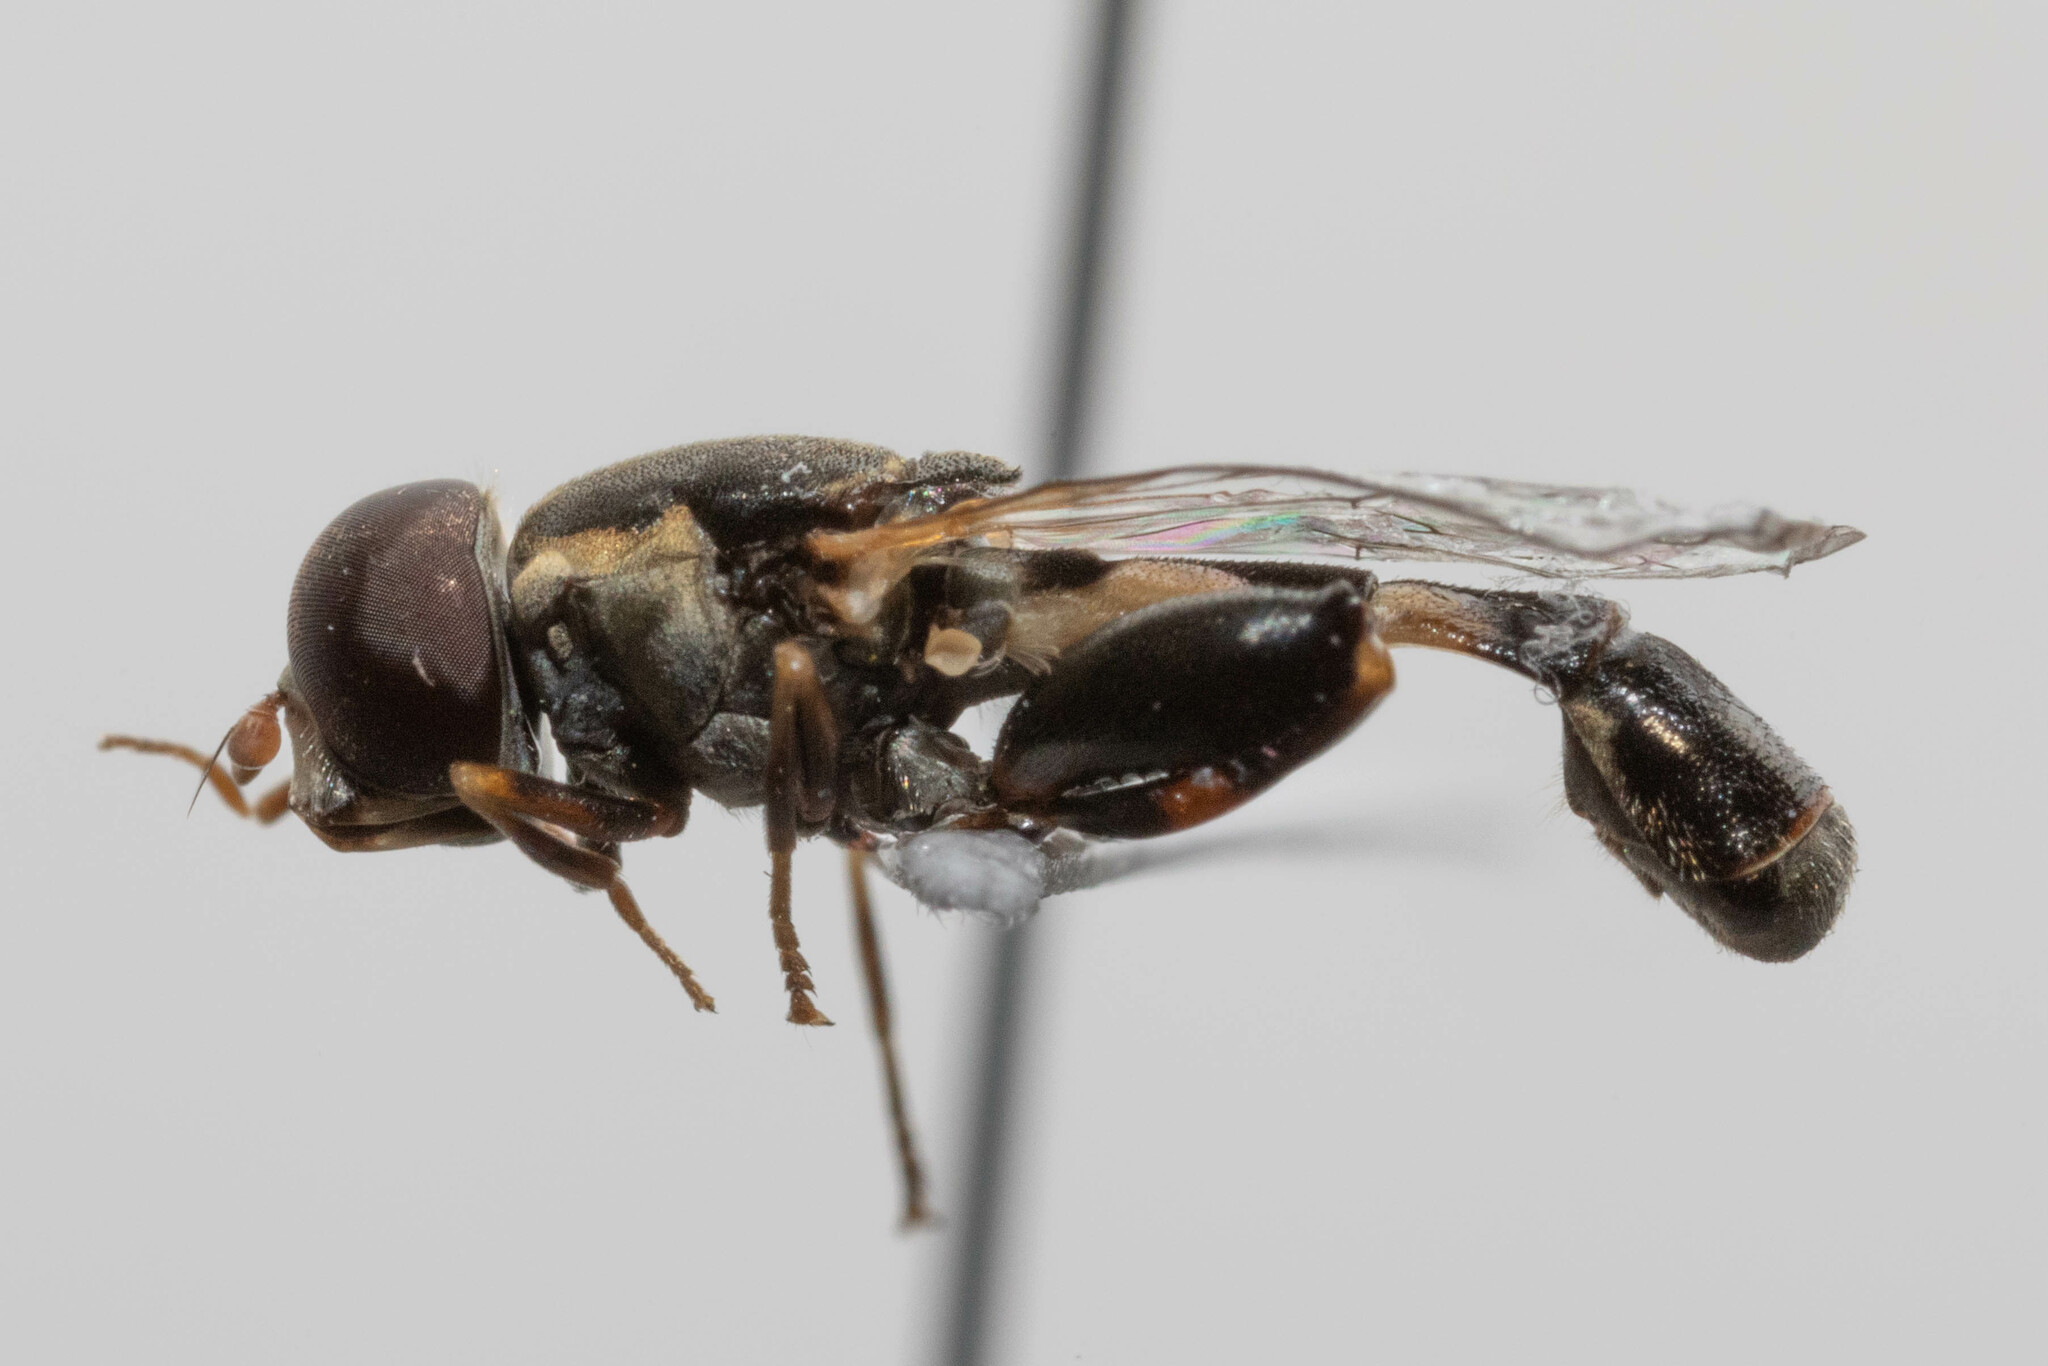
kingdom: Animalia
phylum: Arthropoda
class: Insecta
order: Diptera
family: Syrphidae
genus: Syritta
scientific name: Syritta pipiens
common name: Hover fly
